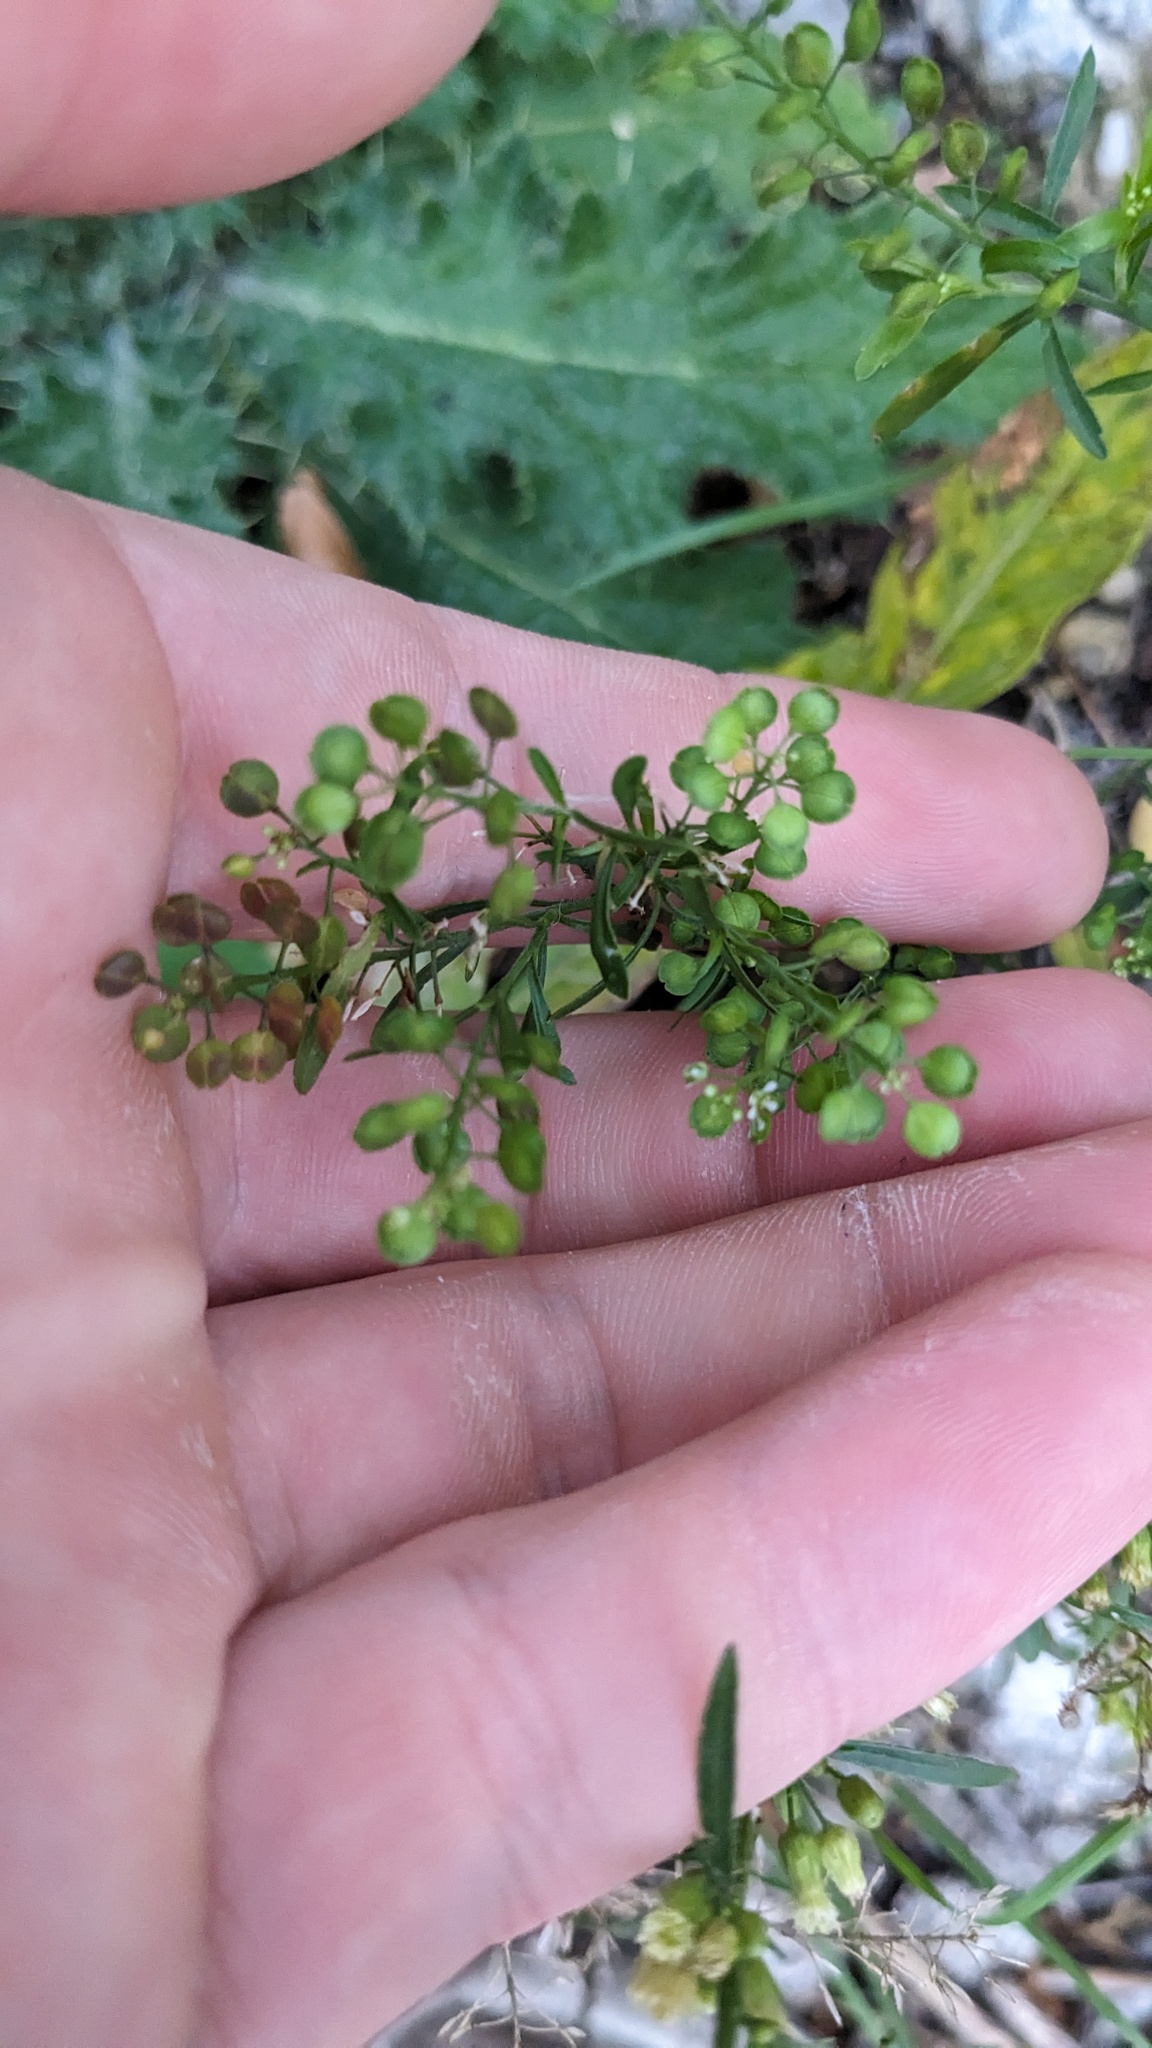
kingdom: Plantae
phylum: Tracheophyta
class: Magnoliopsida
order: Brassicales
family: Brassicaceae
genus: Lepidium
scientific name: Lepidium virginicum
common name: Least pepperwort
